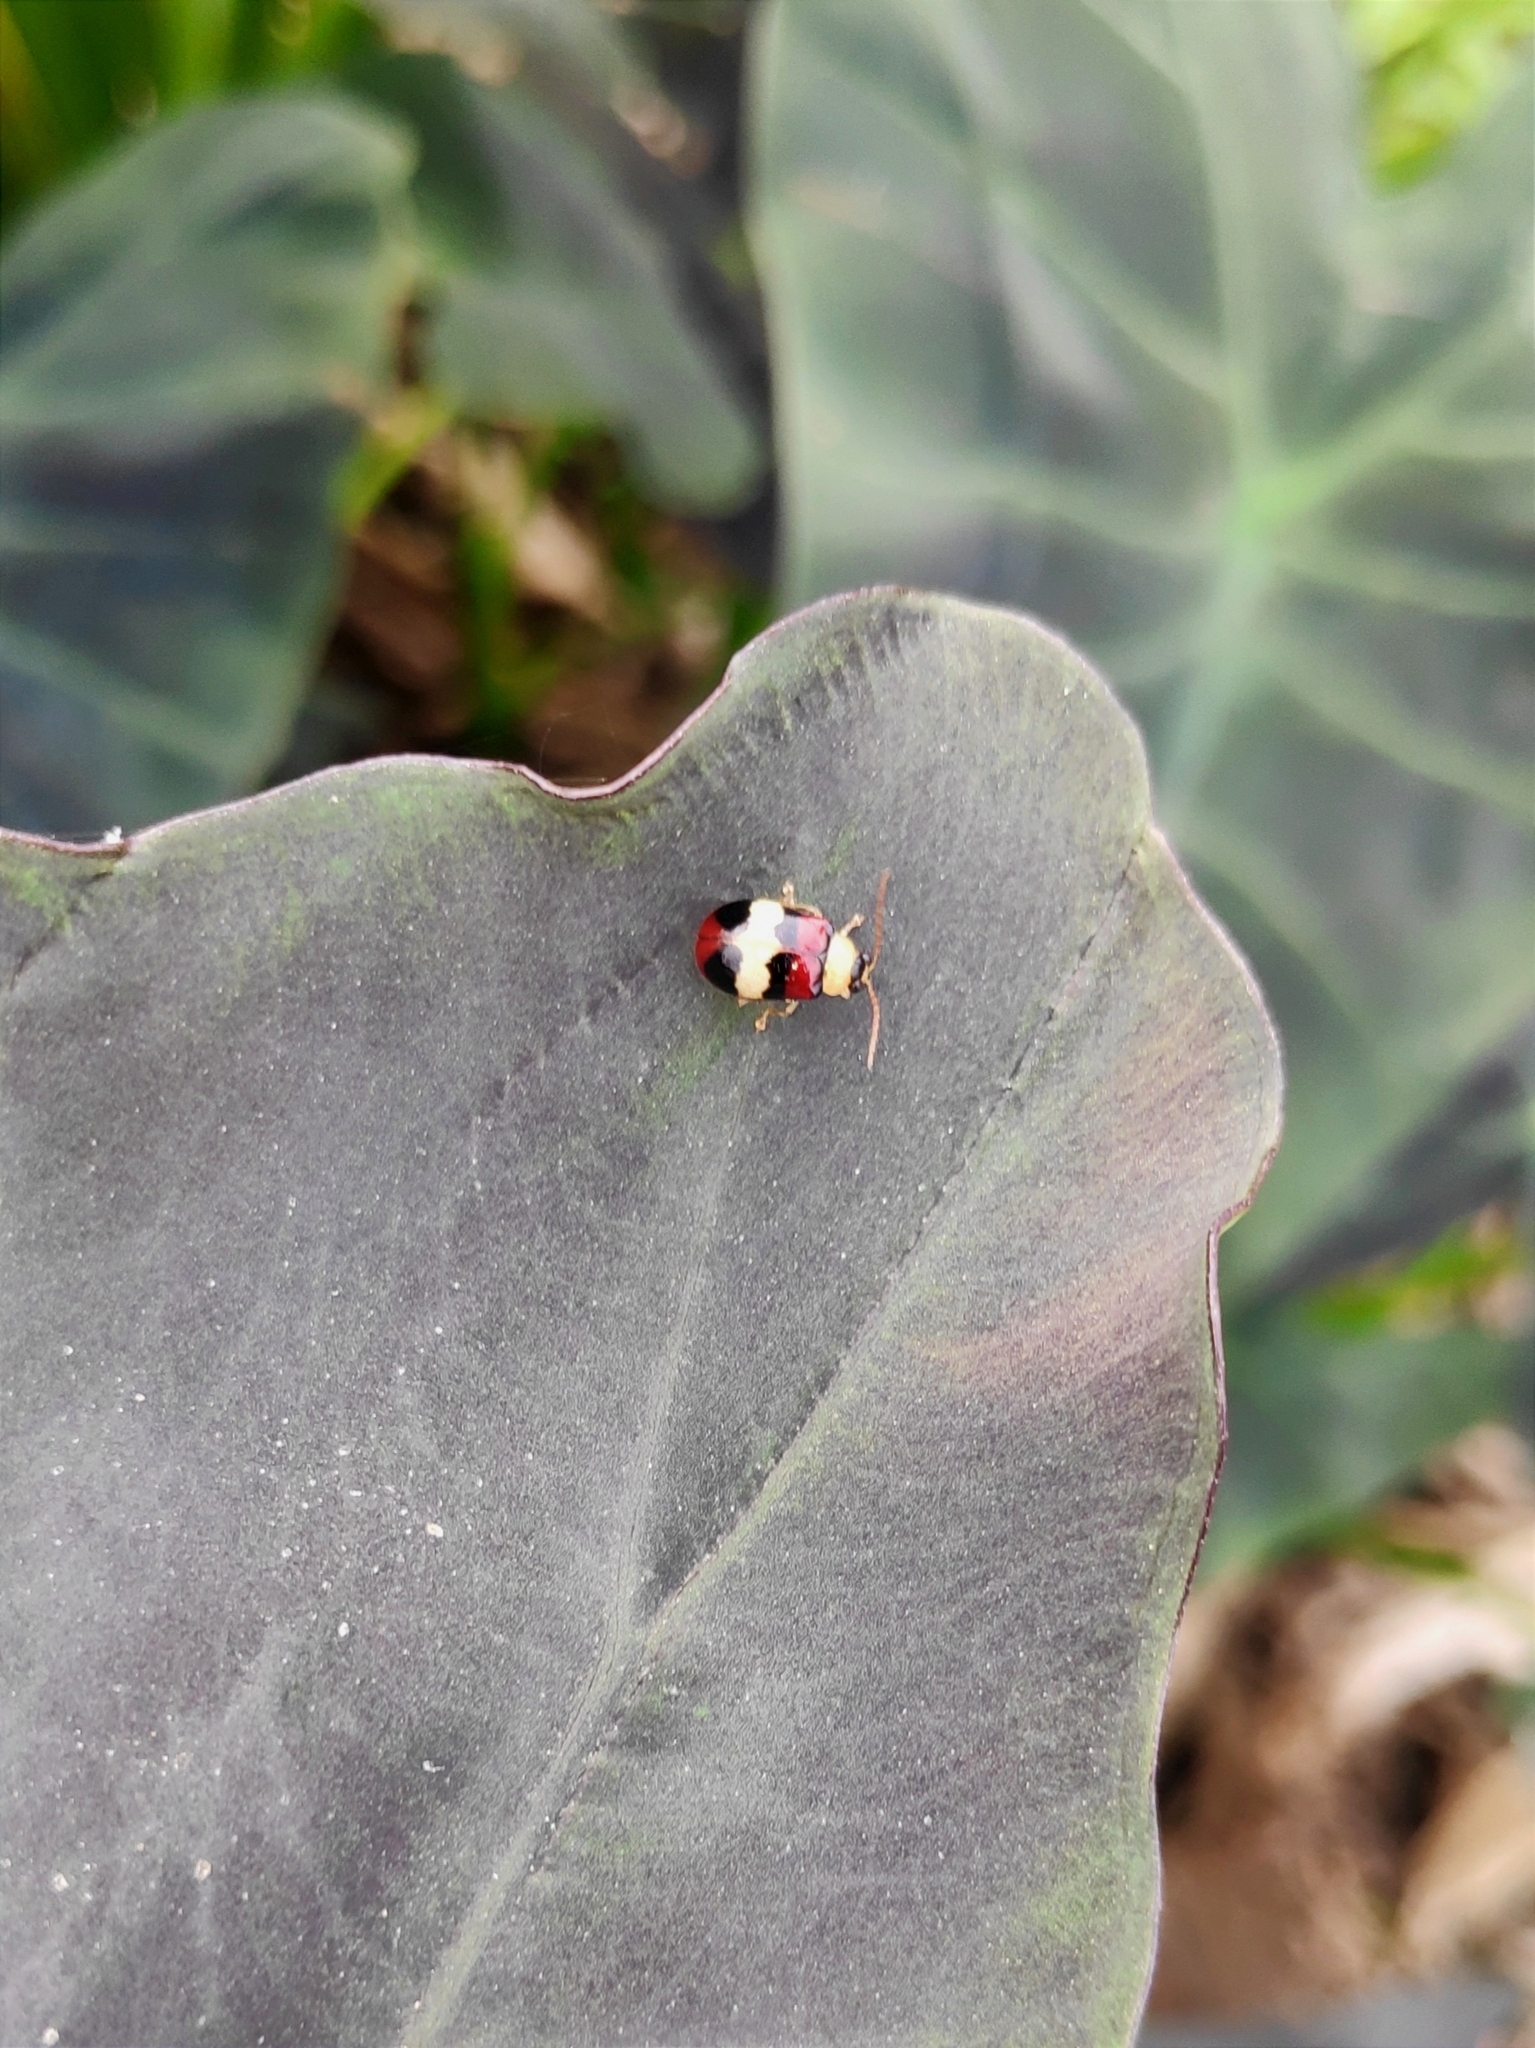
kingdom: Animalia
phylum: Arthropoda
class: Insecta
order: Coleoptera
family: Chrysomelidae
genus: Monolepta
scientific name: Monolepta
